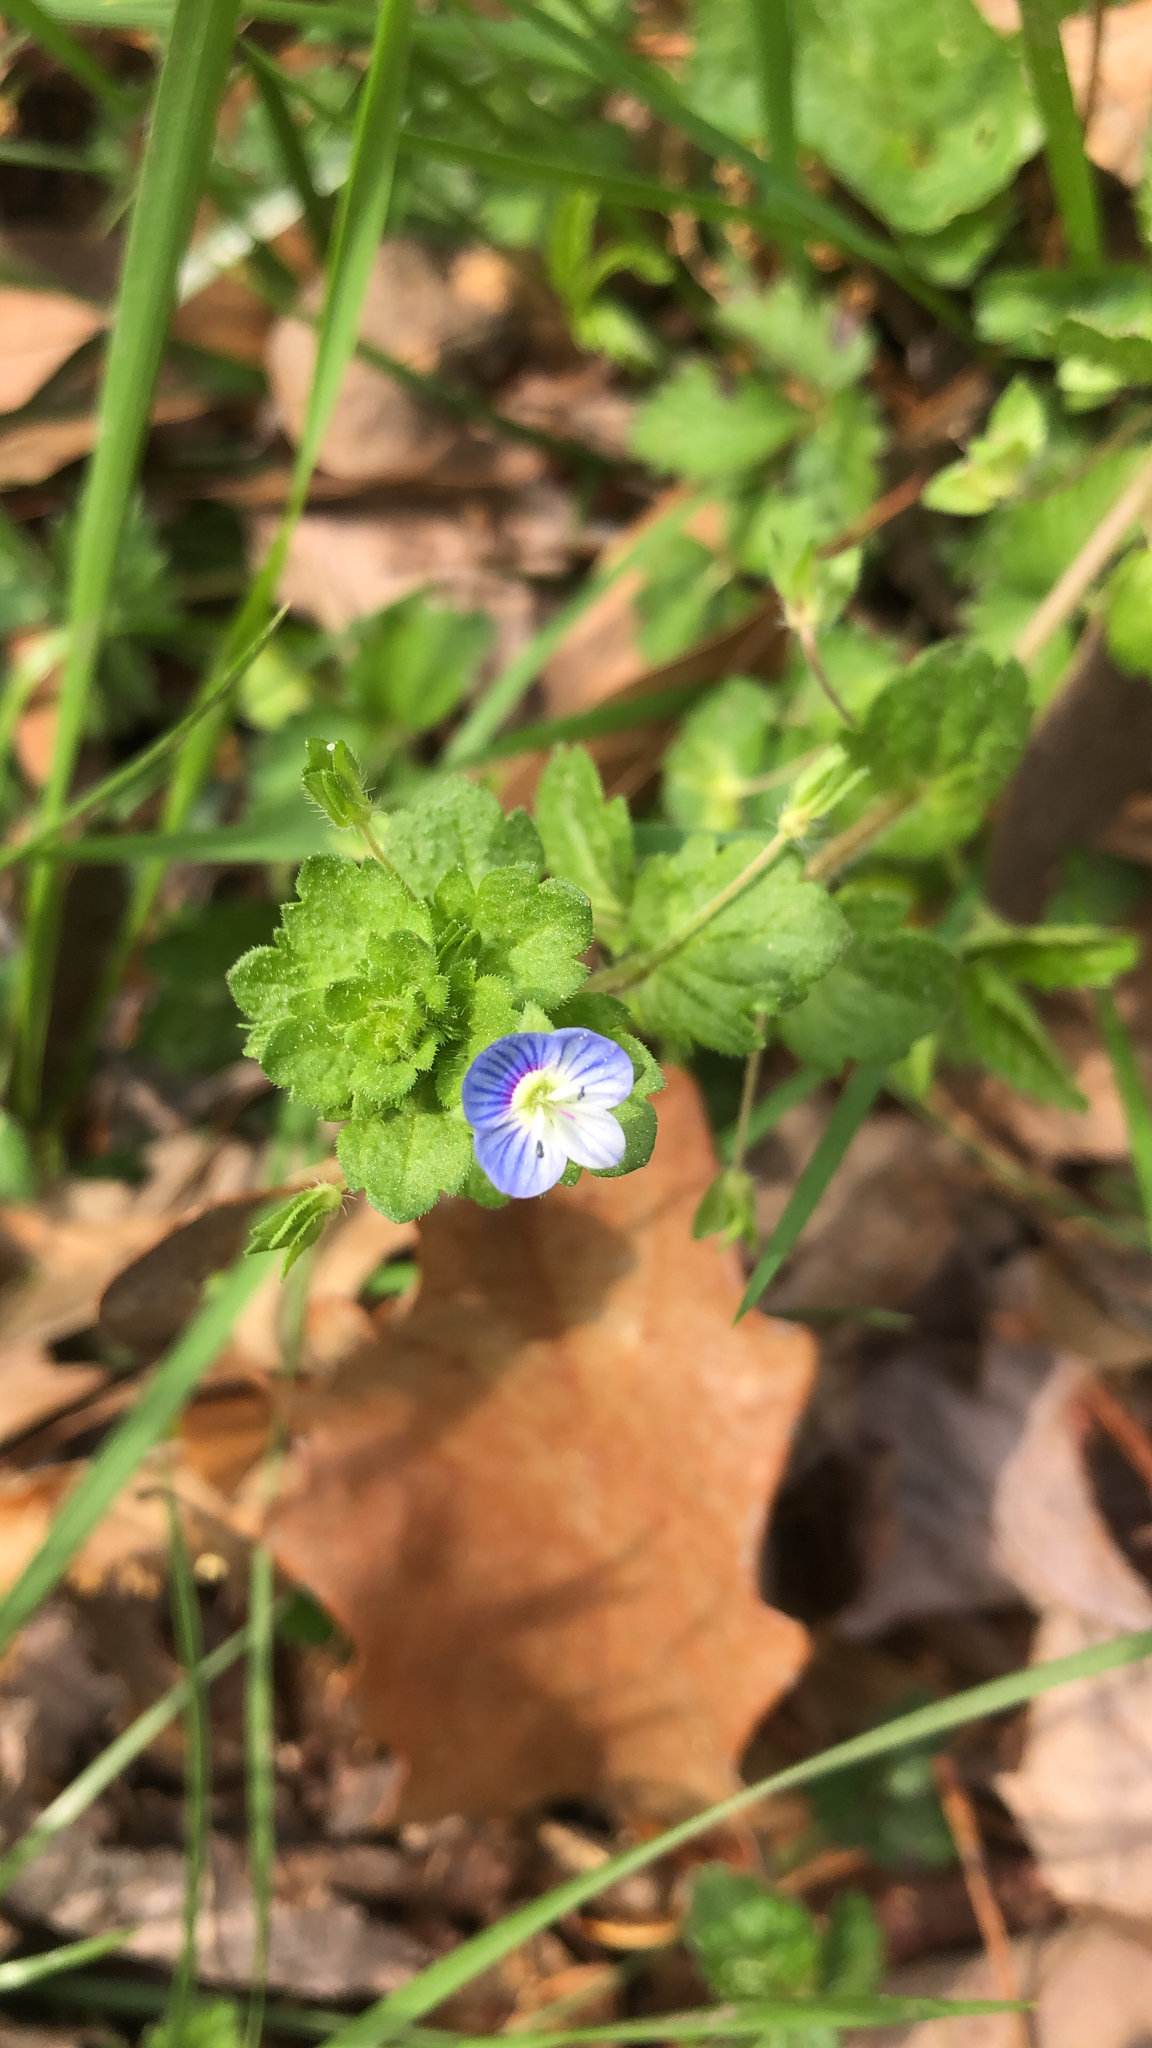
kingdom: Plantae
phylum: Tracheophyta
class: Magnoliopsida
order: Lamiales
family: Plantaginaceae
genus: Veronica
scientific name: Veronica persica
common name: Common field-speedwell
